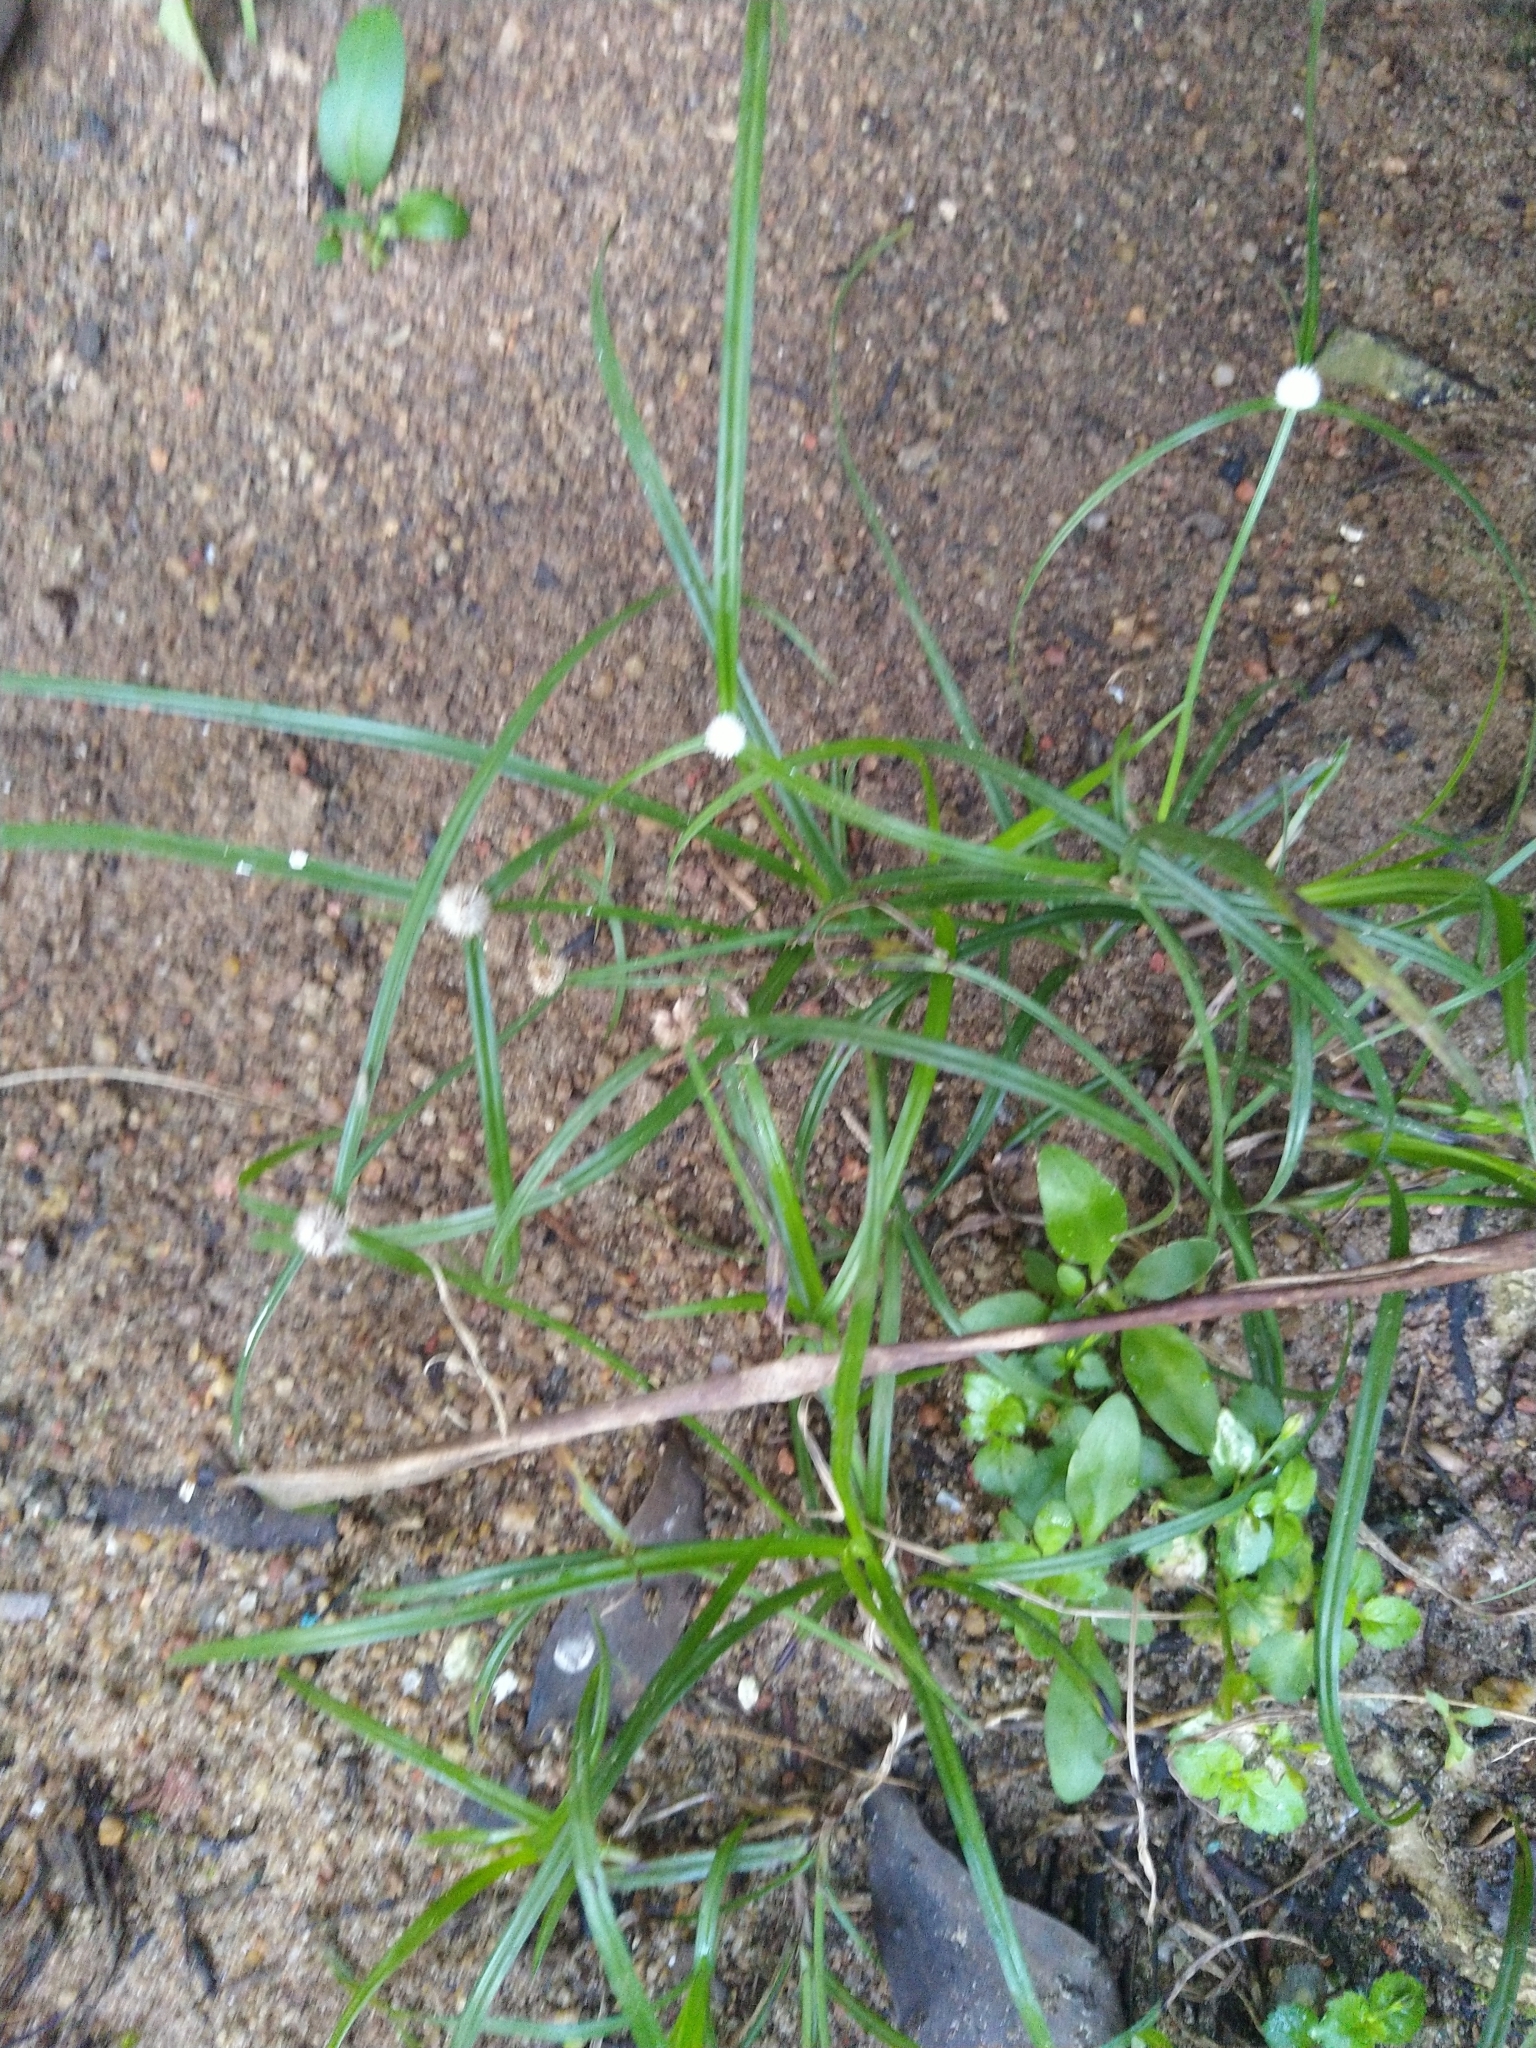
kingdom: Plantae
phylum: Tracheophyta
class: Liliopsida
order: Poales
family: Cyperaceae
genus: Cyperus
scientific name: Cyperus mindorensis
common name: Flatsedge
